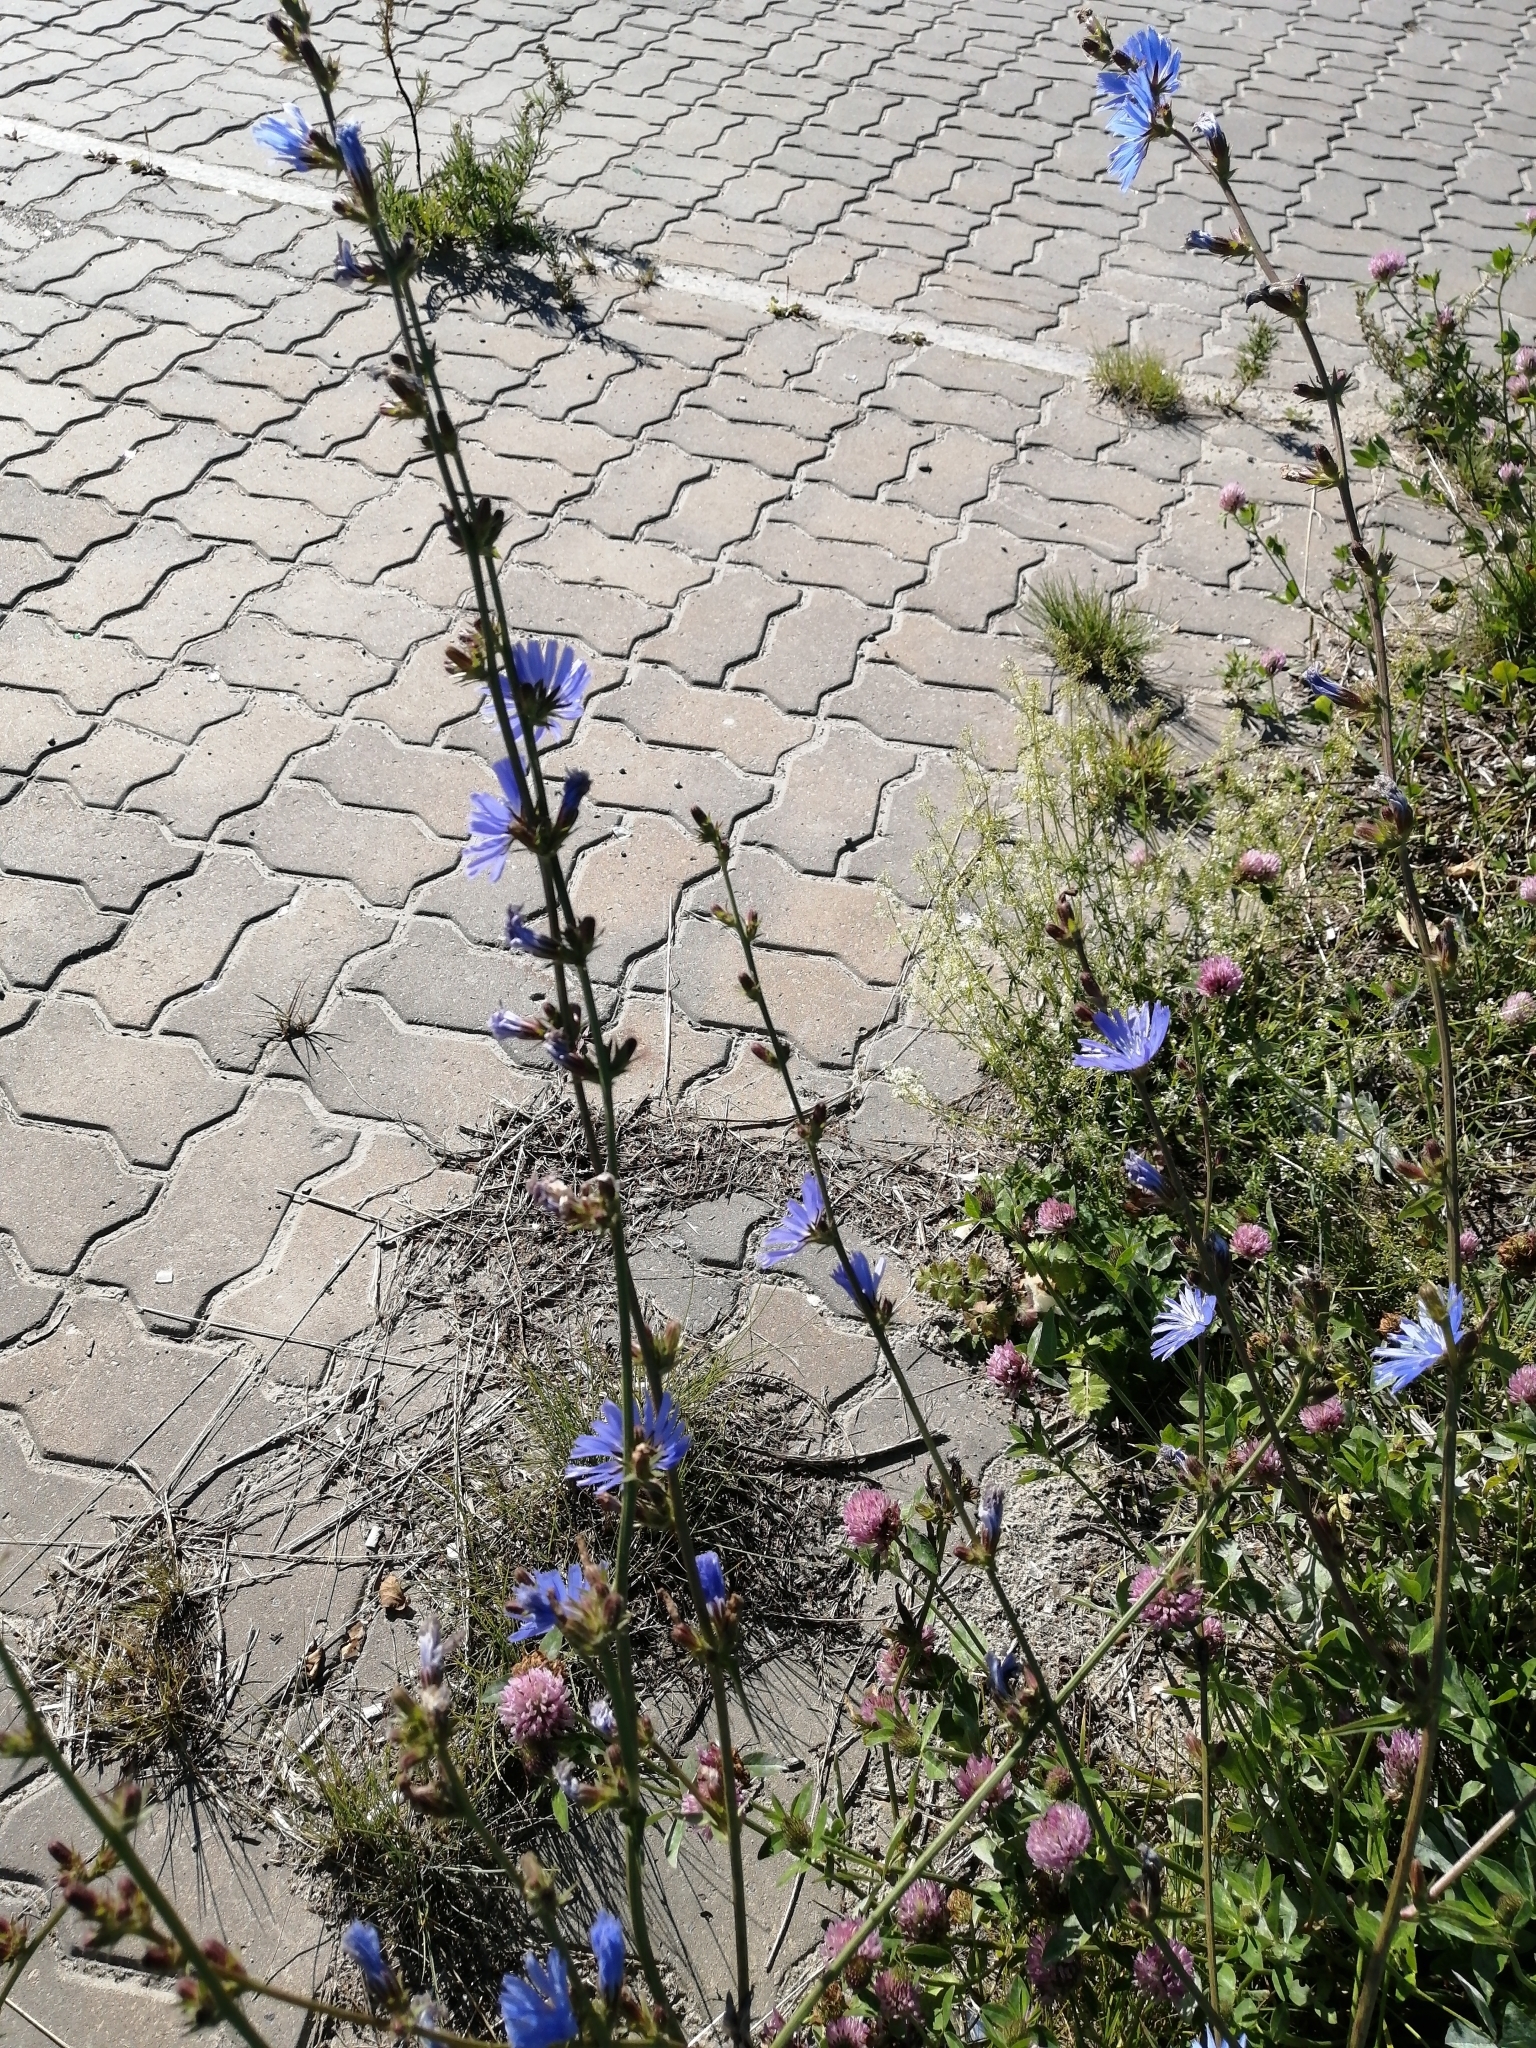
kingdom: Plantae
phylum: Tracheophyta
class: Magnoliopsida
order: Asterales
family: Asteraceae
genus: Cichorium
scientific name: Cichorium intybus
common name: Chicory
